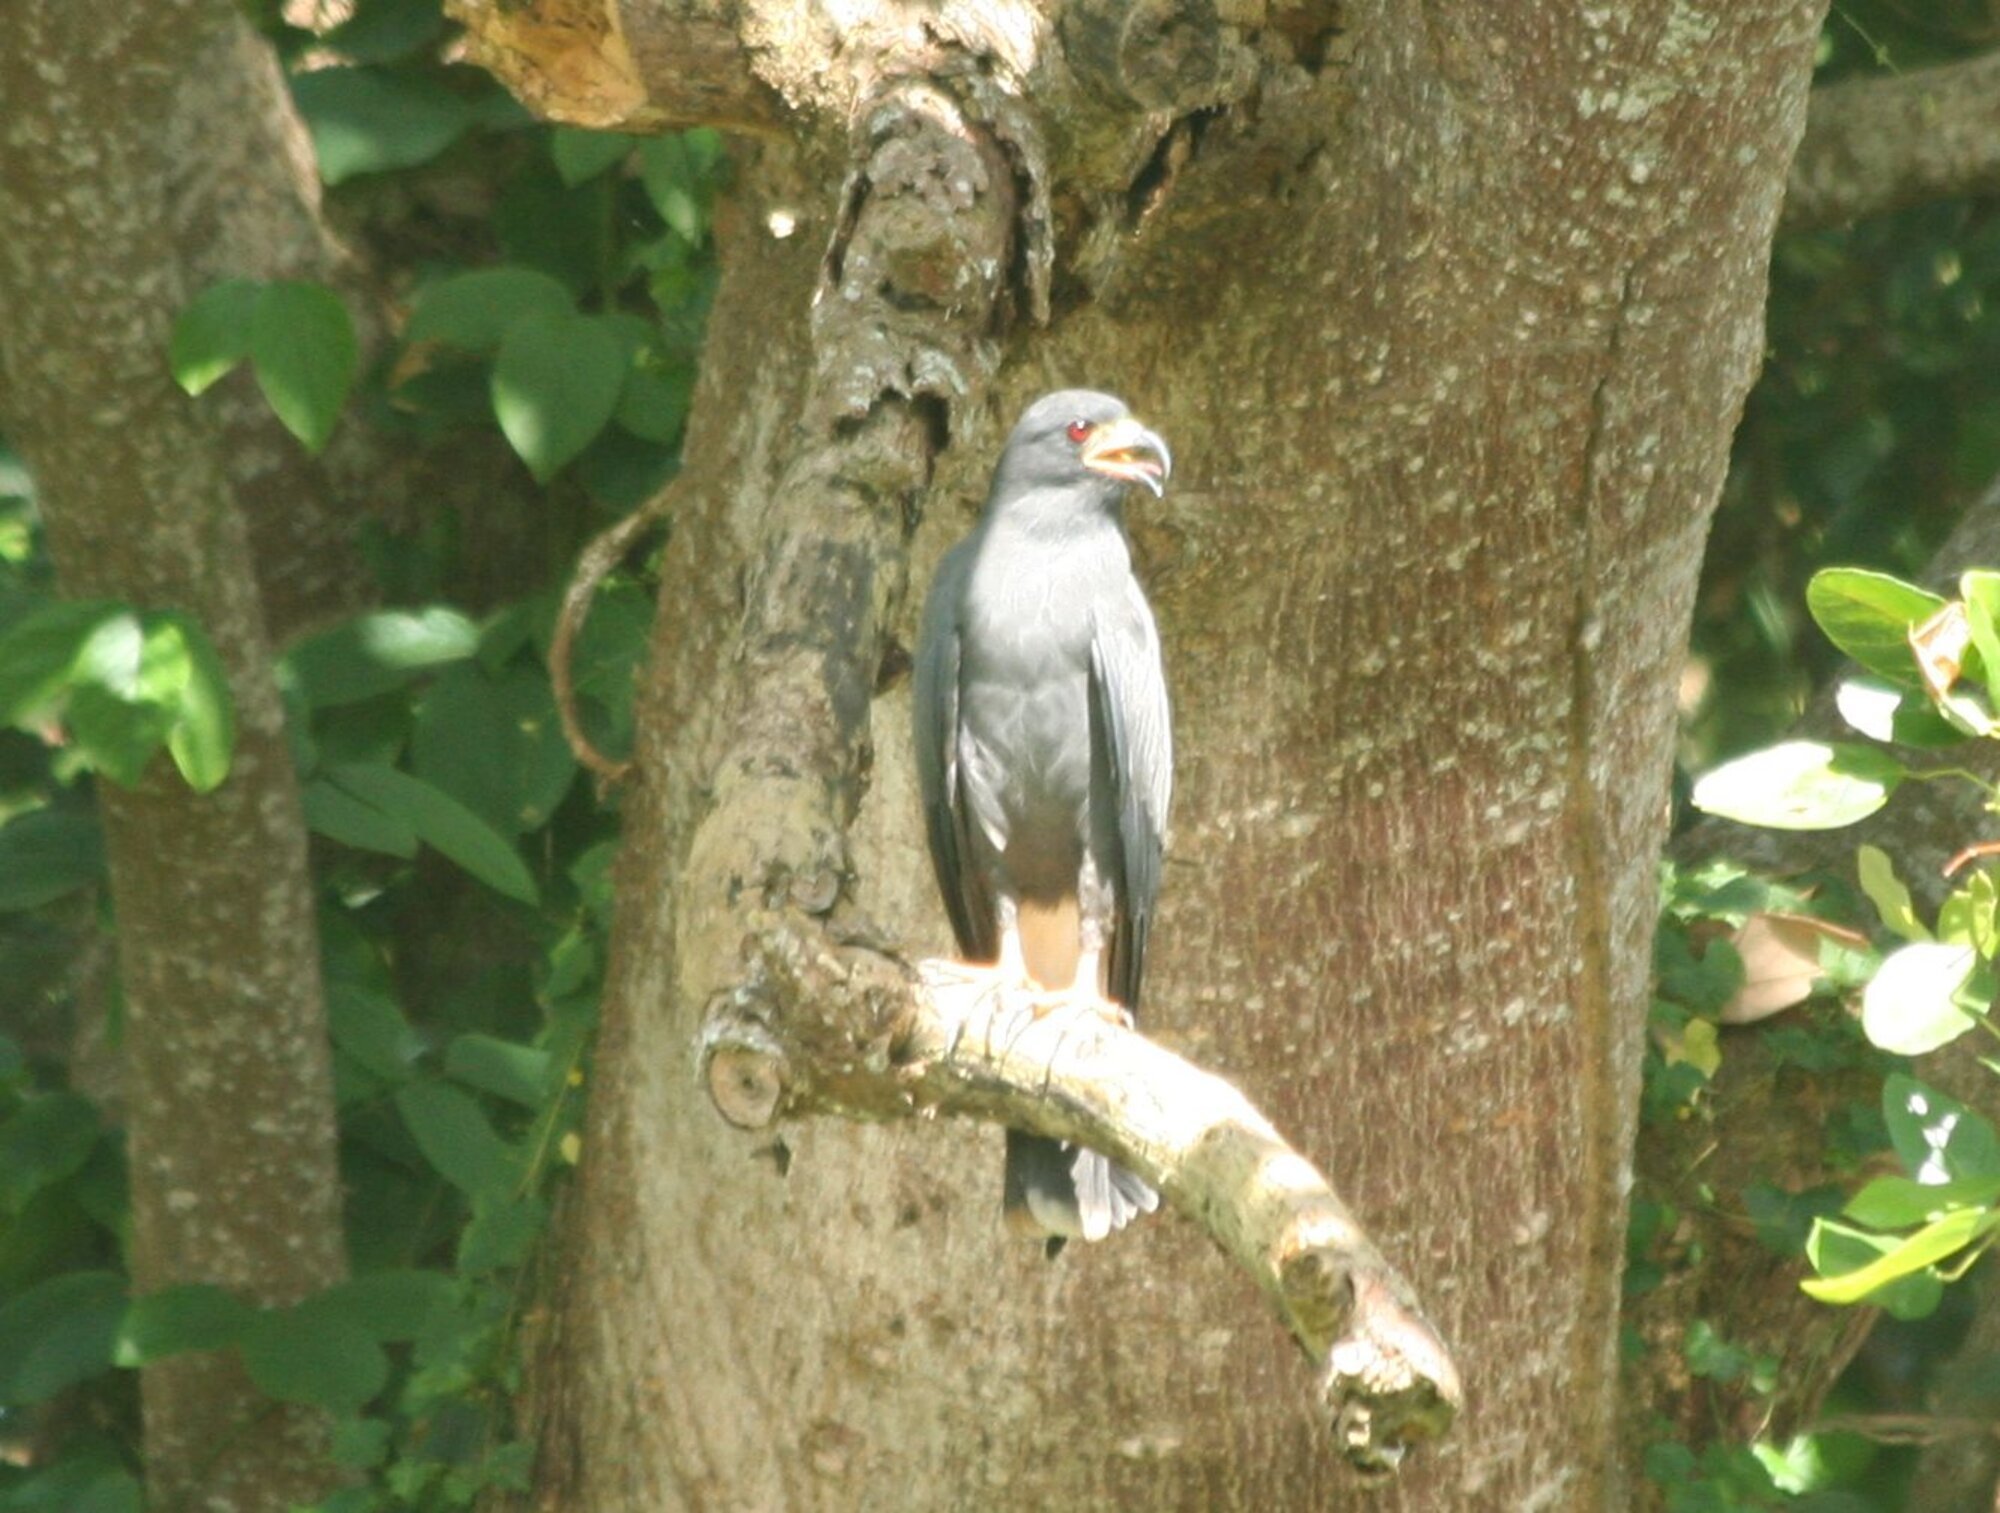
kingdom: Animalia
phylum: Chordata
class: Aves
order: Accipitriformes
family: Accipitridae
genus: Rostrhamus
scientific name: Rostrhamus sociabilis
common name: Snail kite
